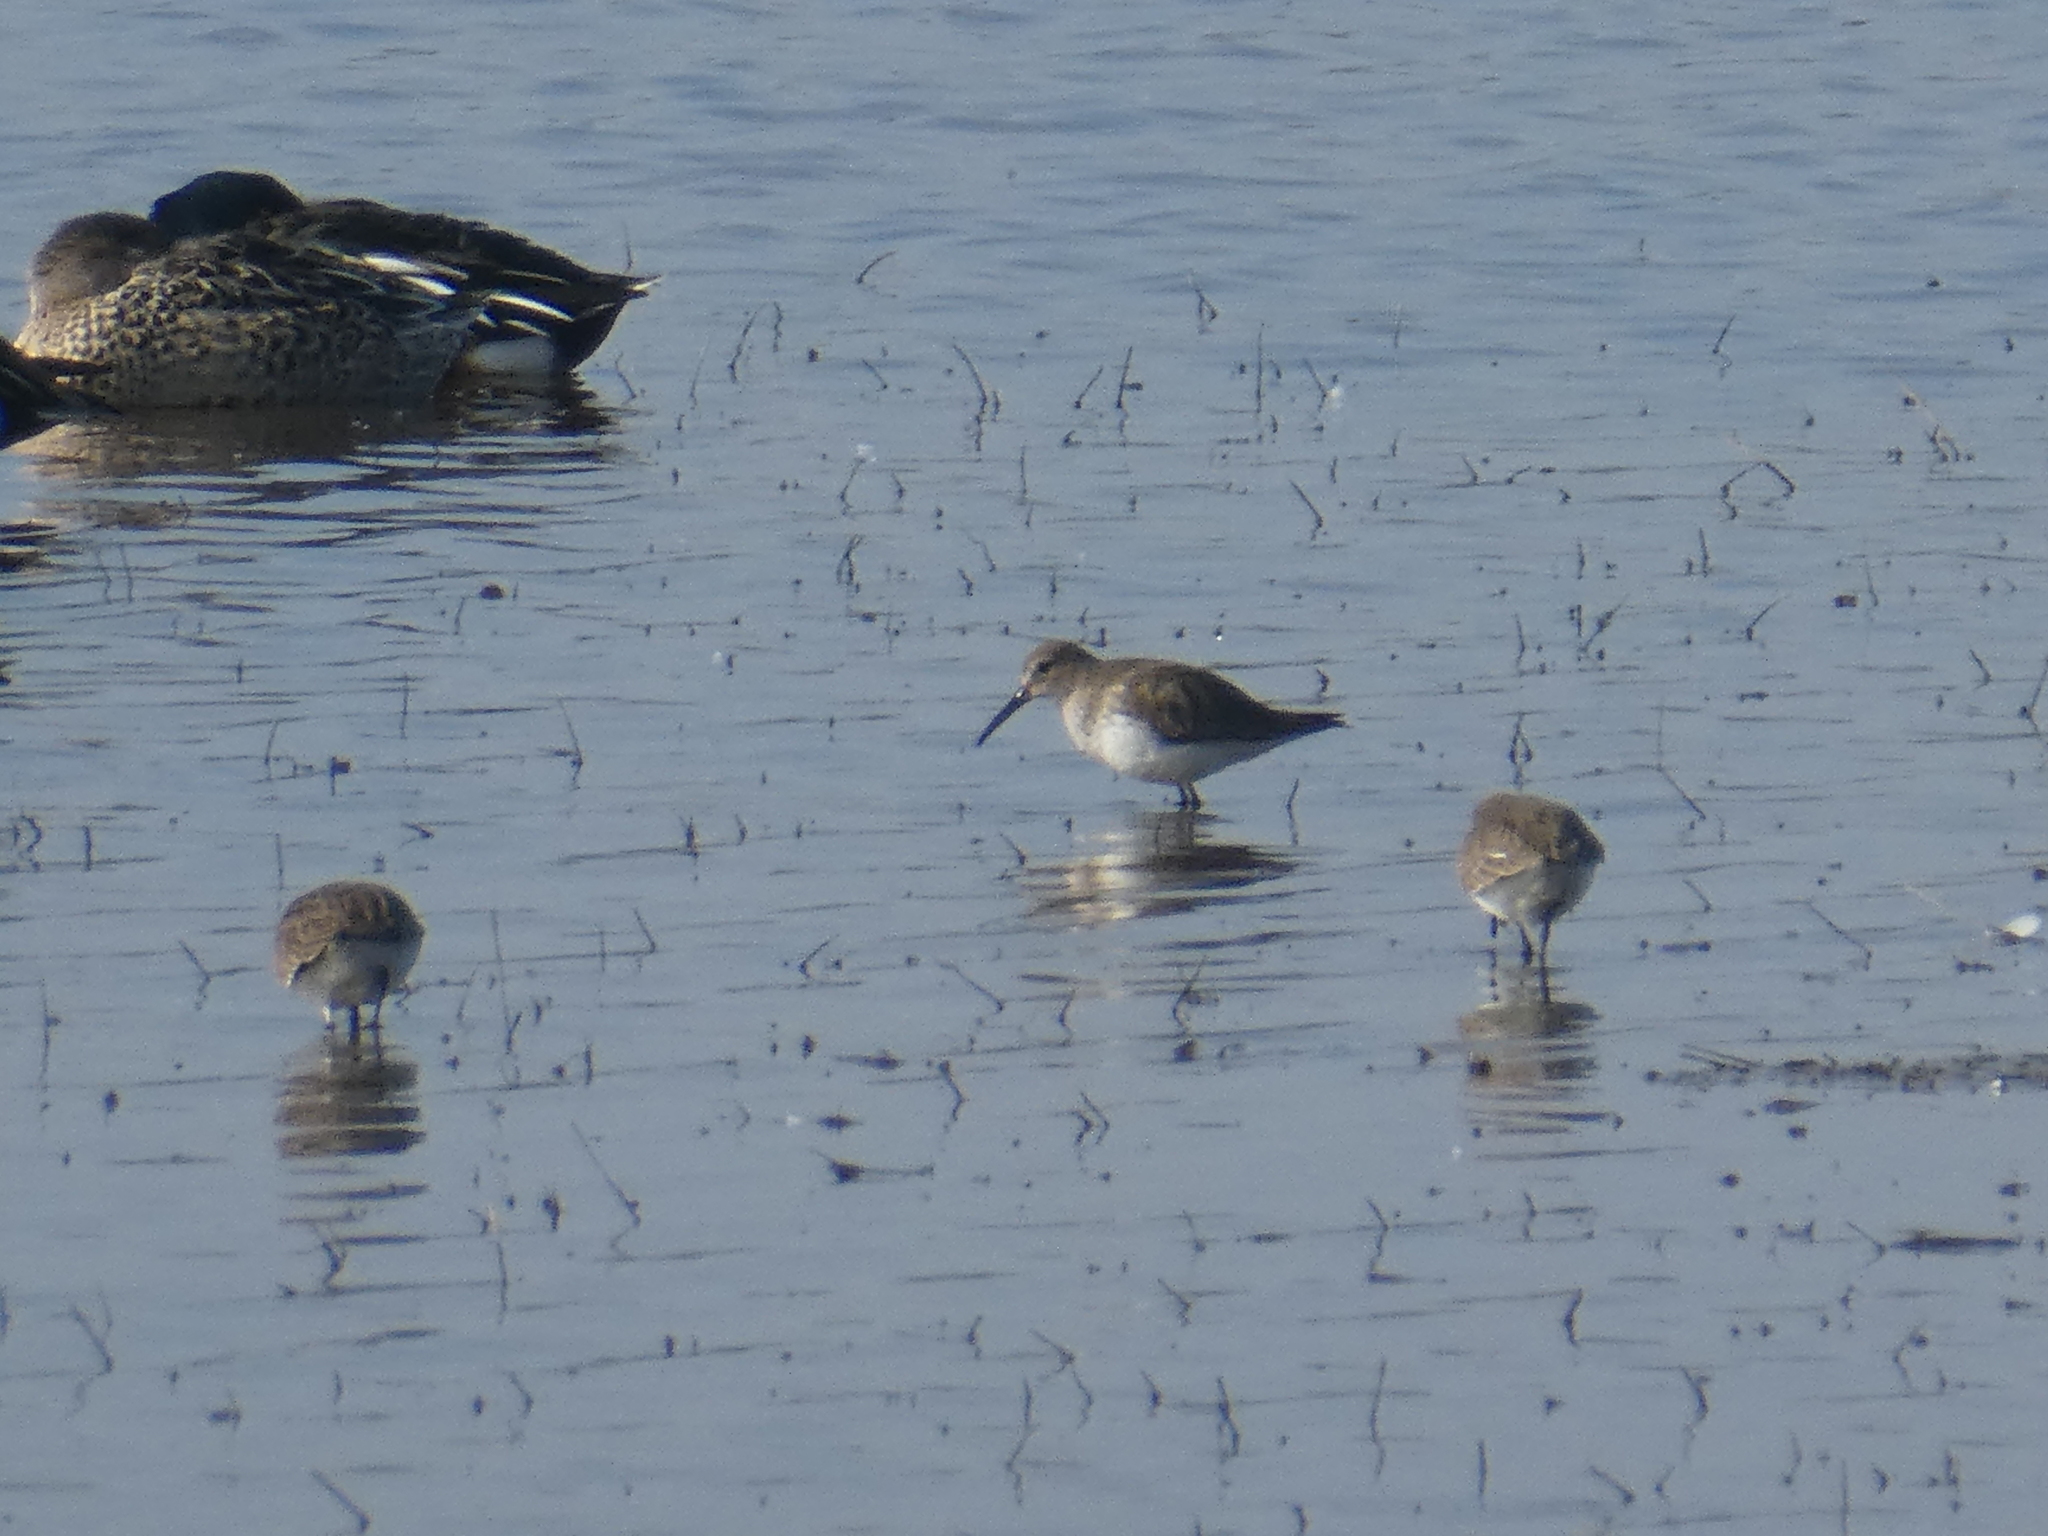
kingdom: Animalia
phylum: Chordata
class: Aves
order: Charadriiformes
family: Scolopacidae
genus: Calidris
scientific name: Calidris alpina
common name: Dunlin
